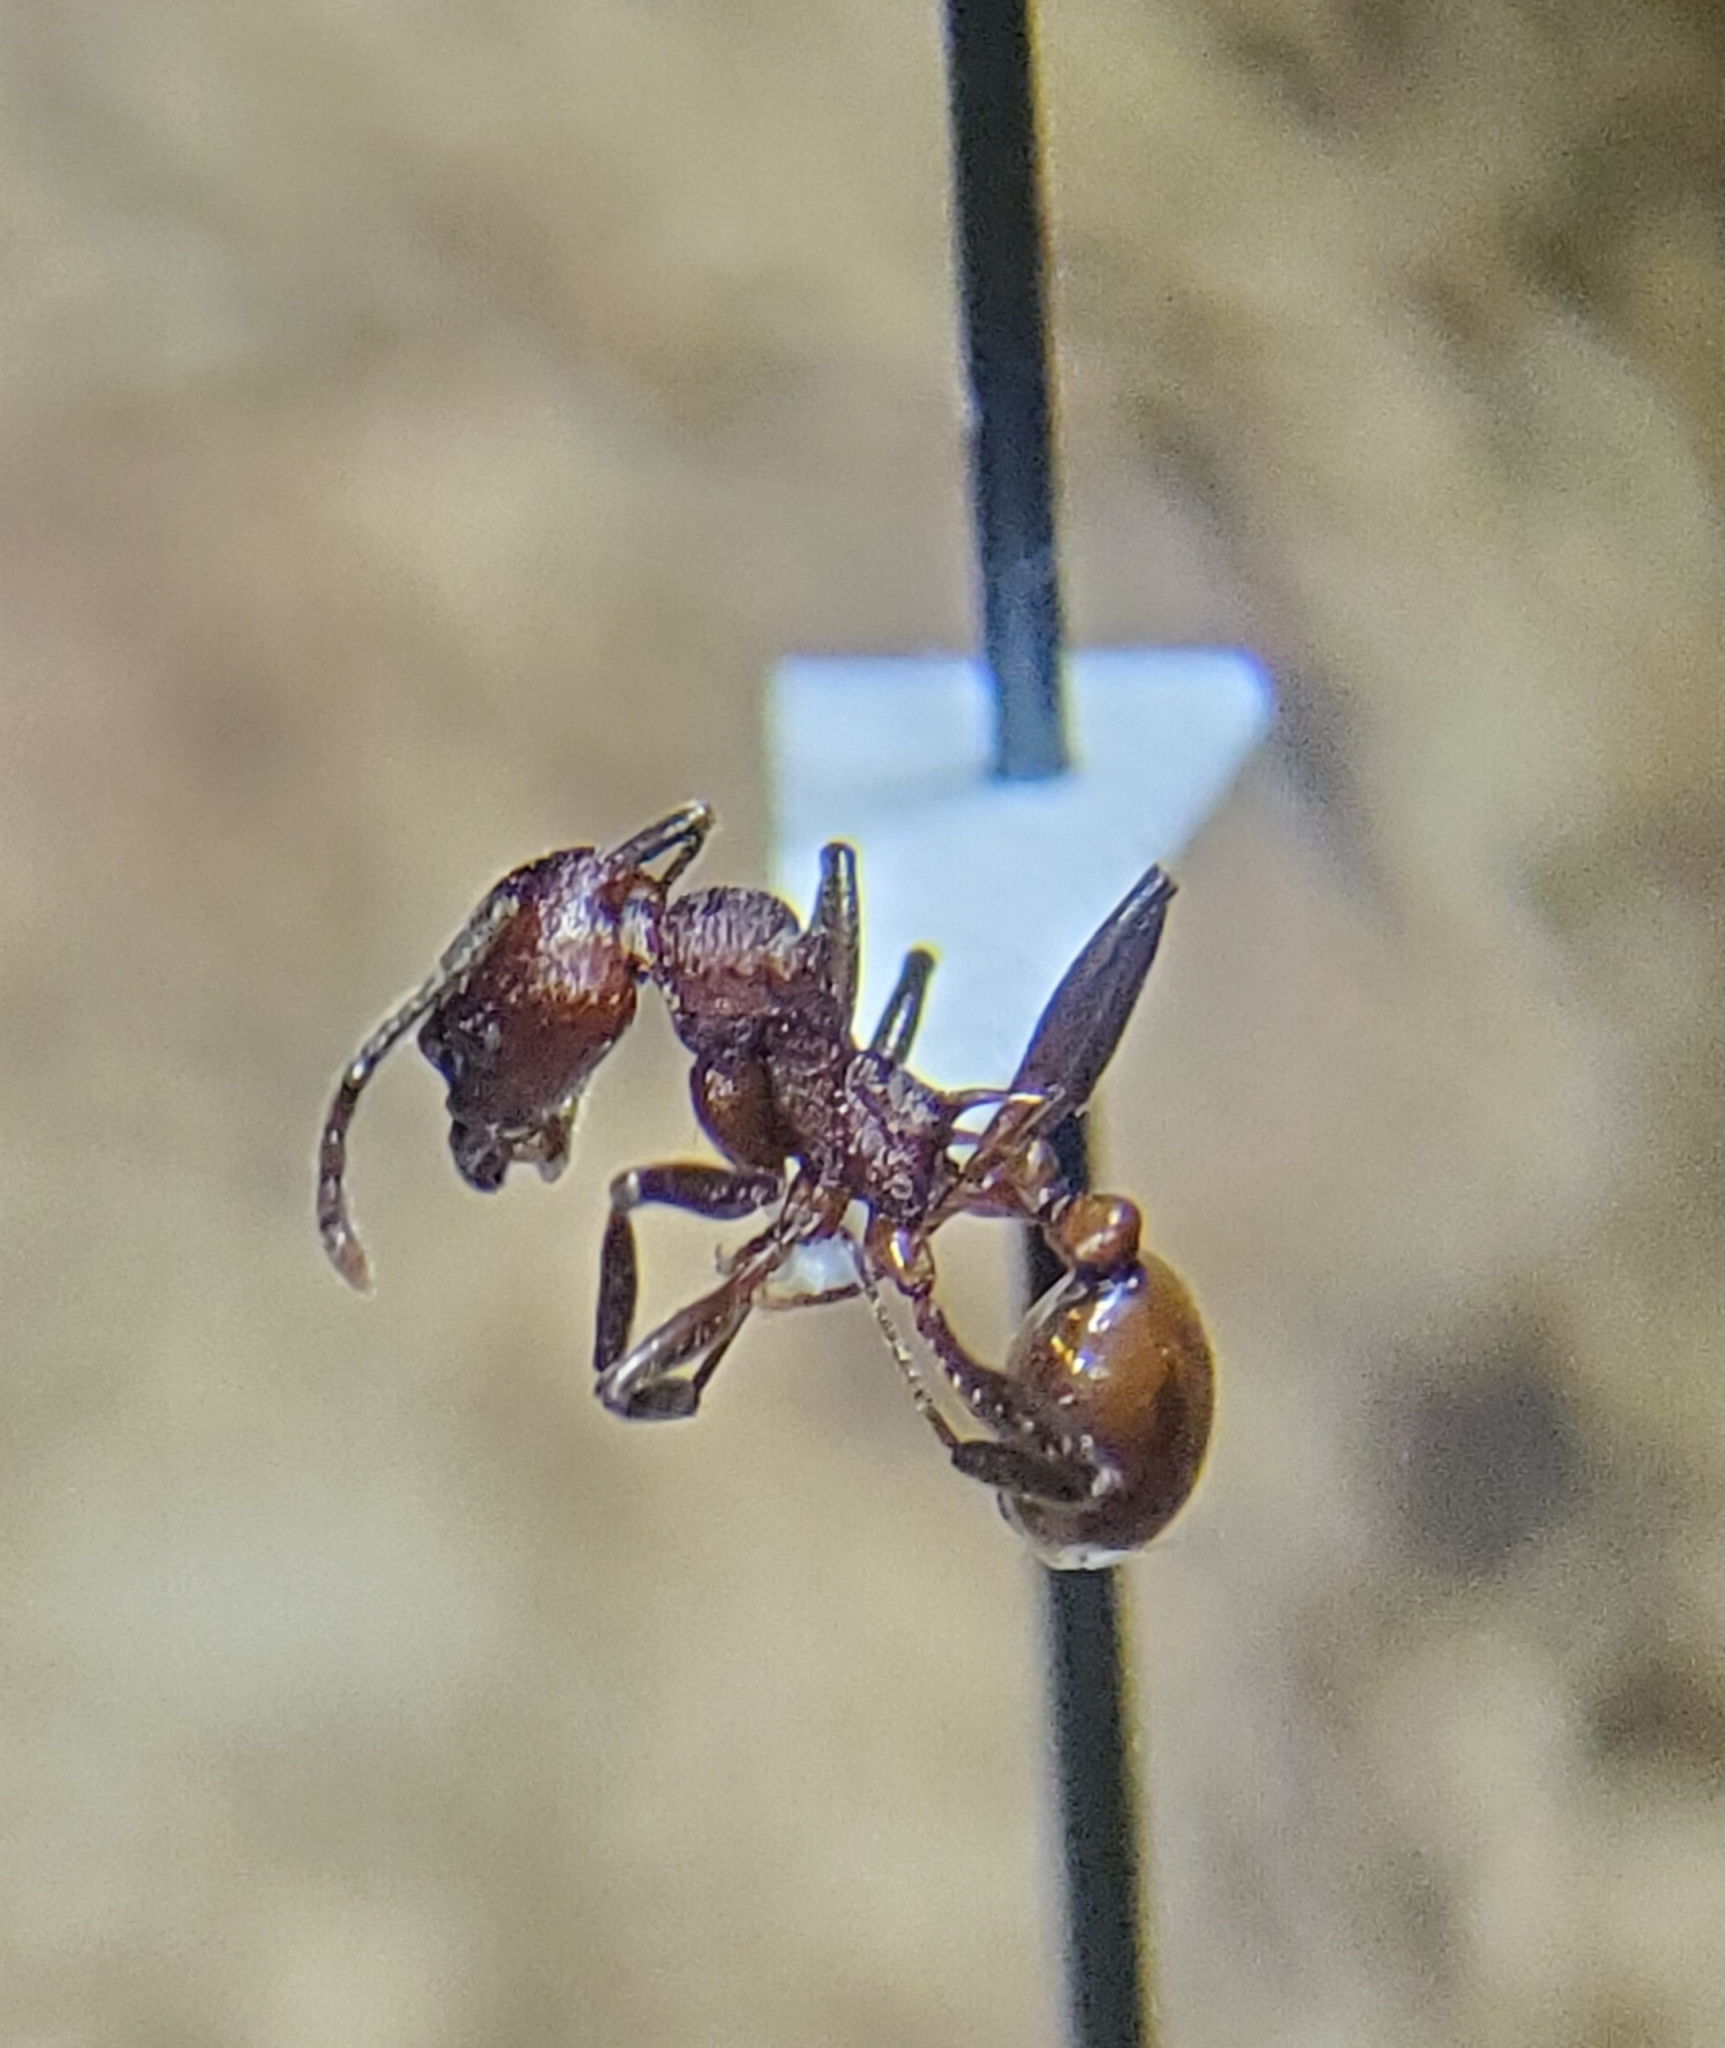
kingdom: Animalia
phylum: Arthropoda
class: Insecta
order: Hymenoptera
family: Formicidae
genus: Aphaenogaster
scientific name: Aphaenogaster tennesseensis
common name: Tennessee thread-waisted ant
